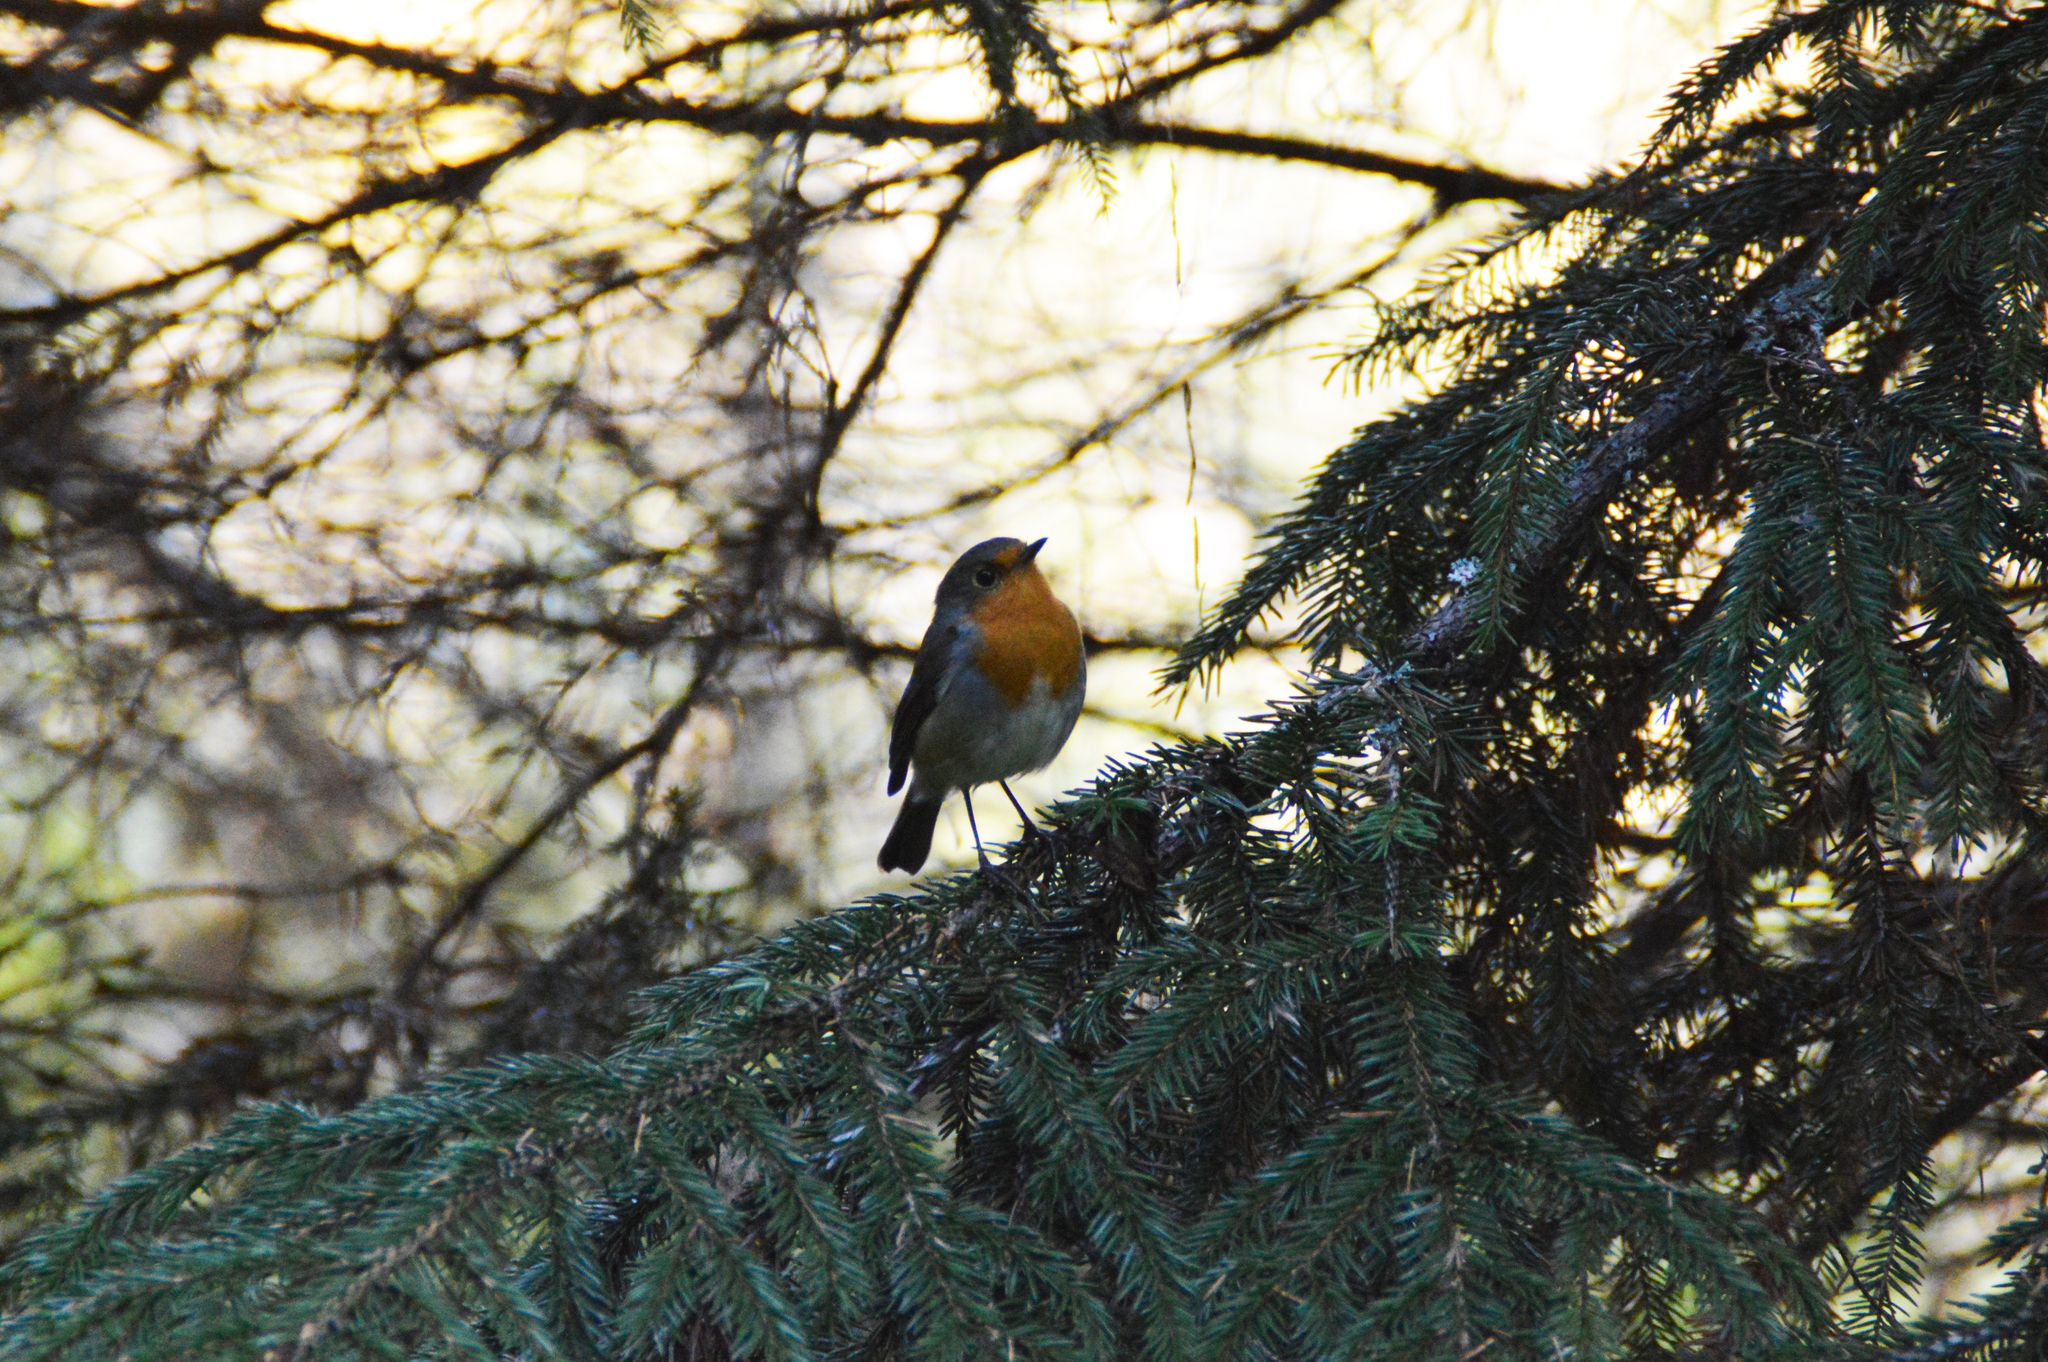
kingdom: Animalia
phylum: Chordata
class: Aves
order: Passeriformes
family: Muscicapidae
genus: Erithacus
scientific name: Erithacus rubecula
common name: European robin
